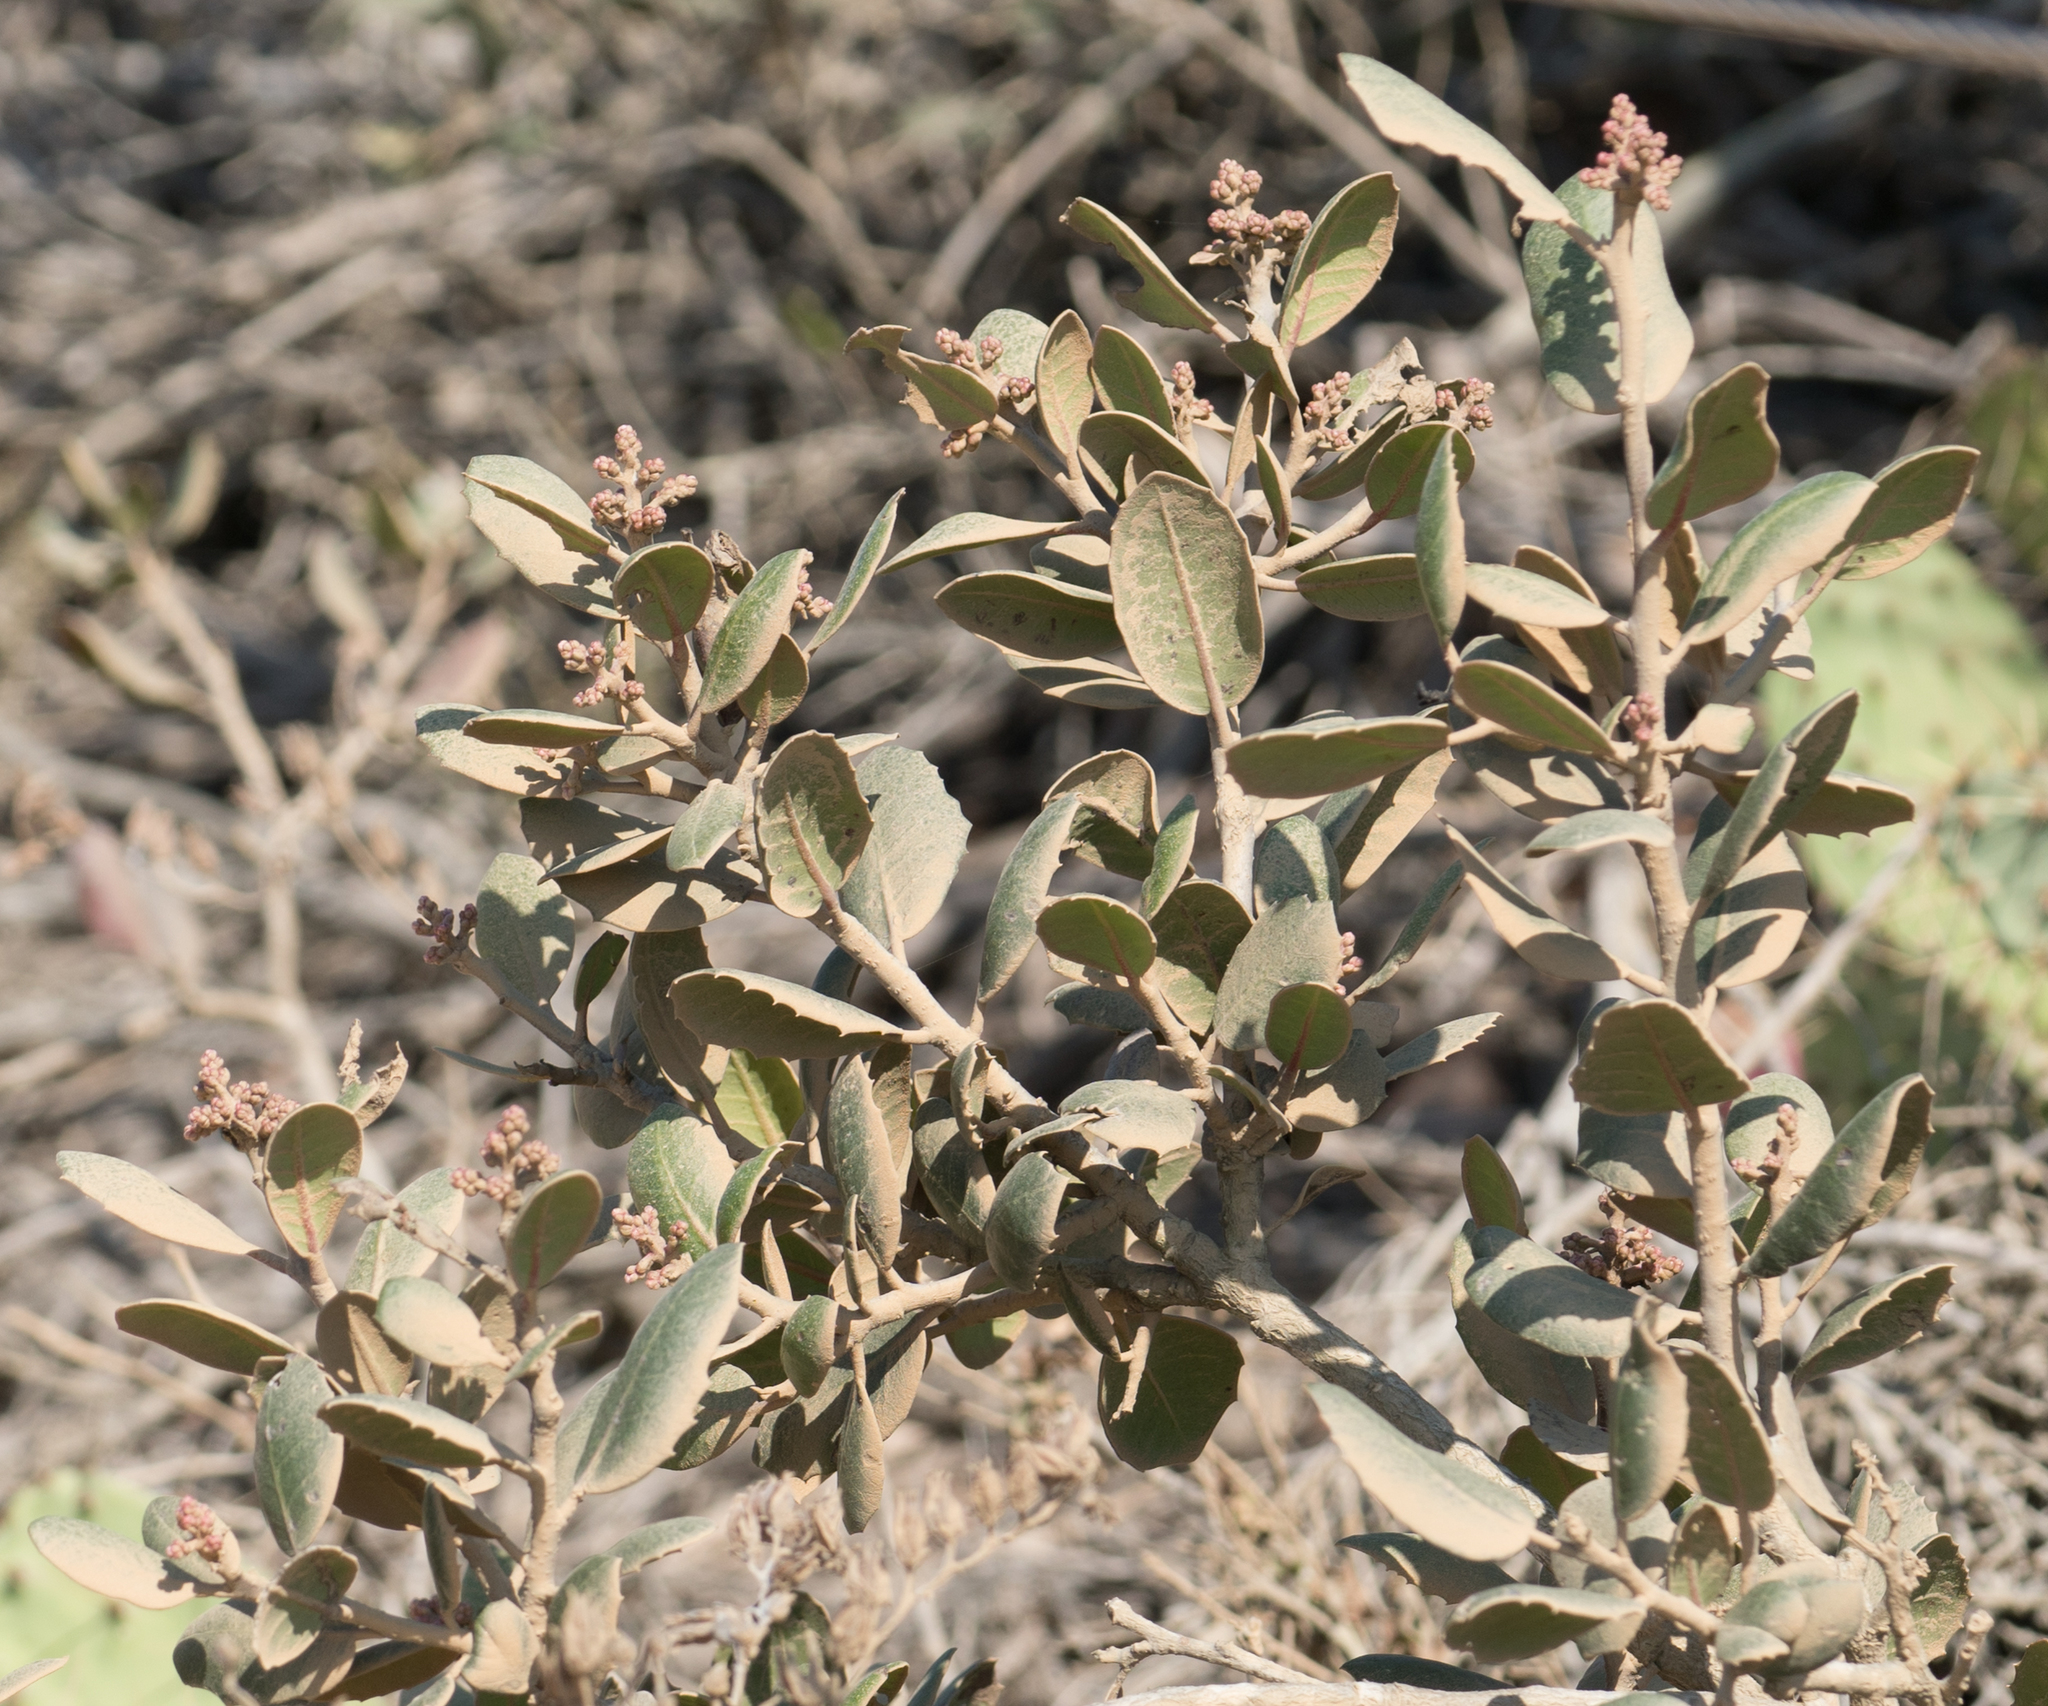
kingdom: Plantae
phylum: Tracheophyta
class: Magnoliopsida
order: Sapindales
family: Anacardiaceae
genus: Rhus
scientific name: Rhus integrifolia
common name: Lemonade sumac
